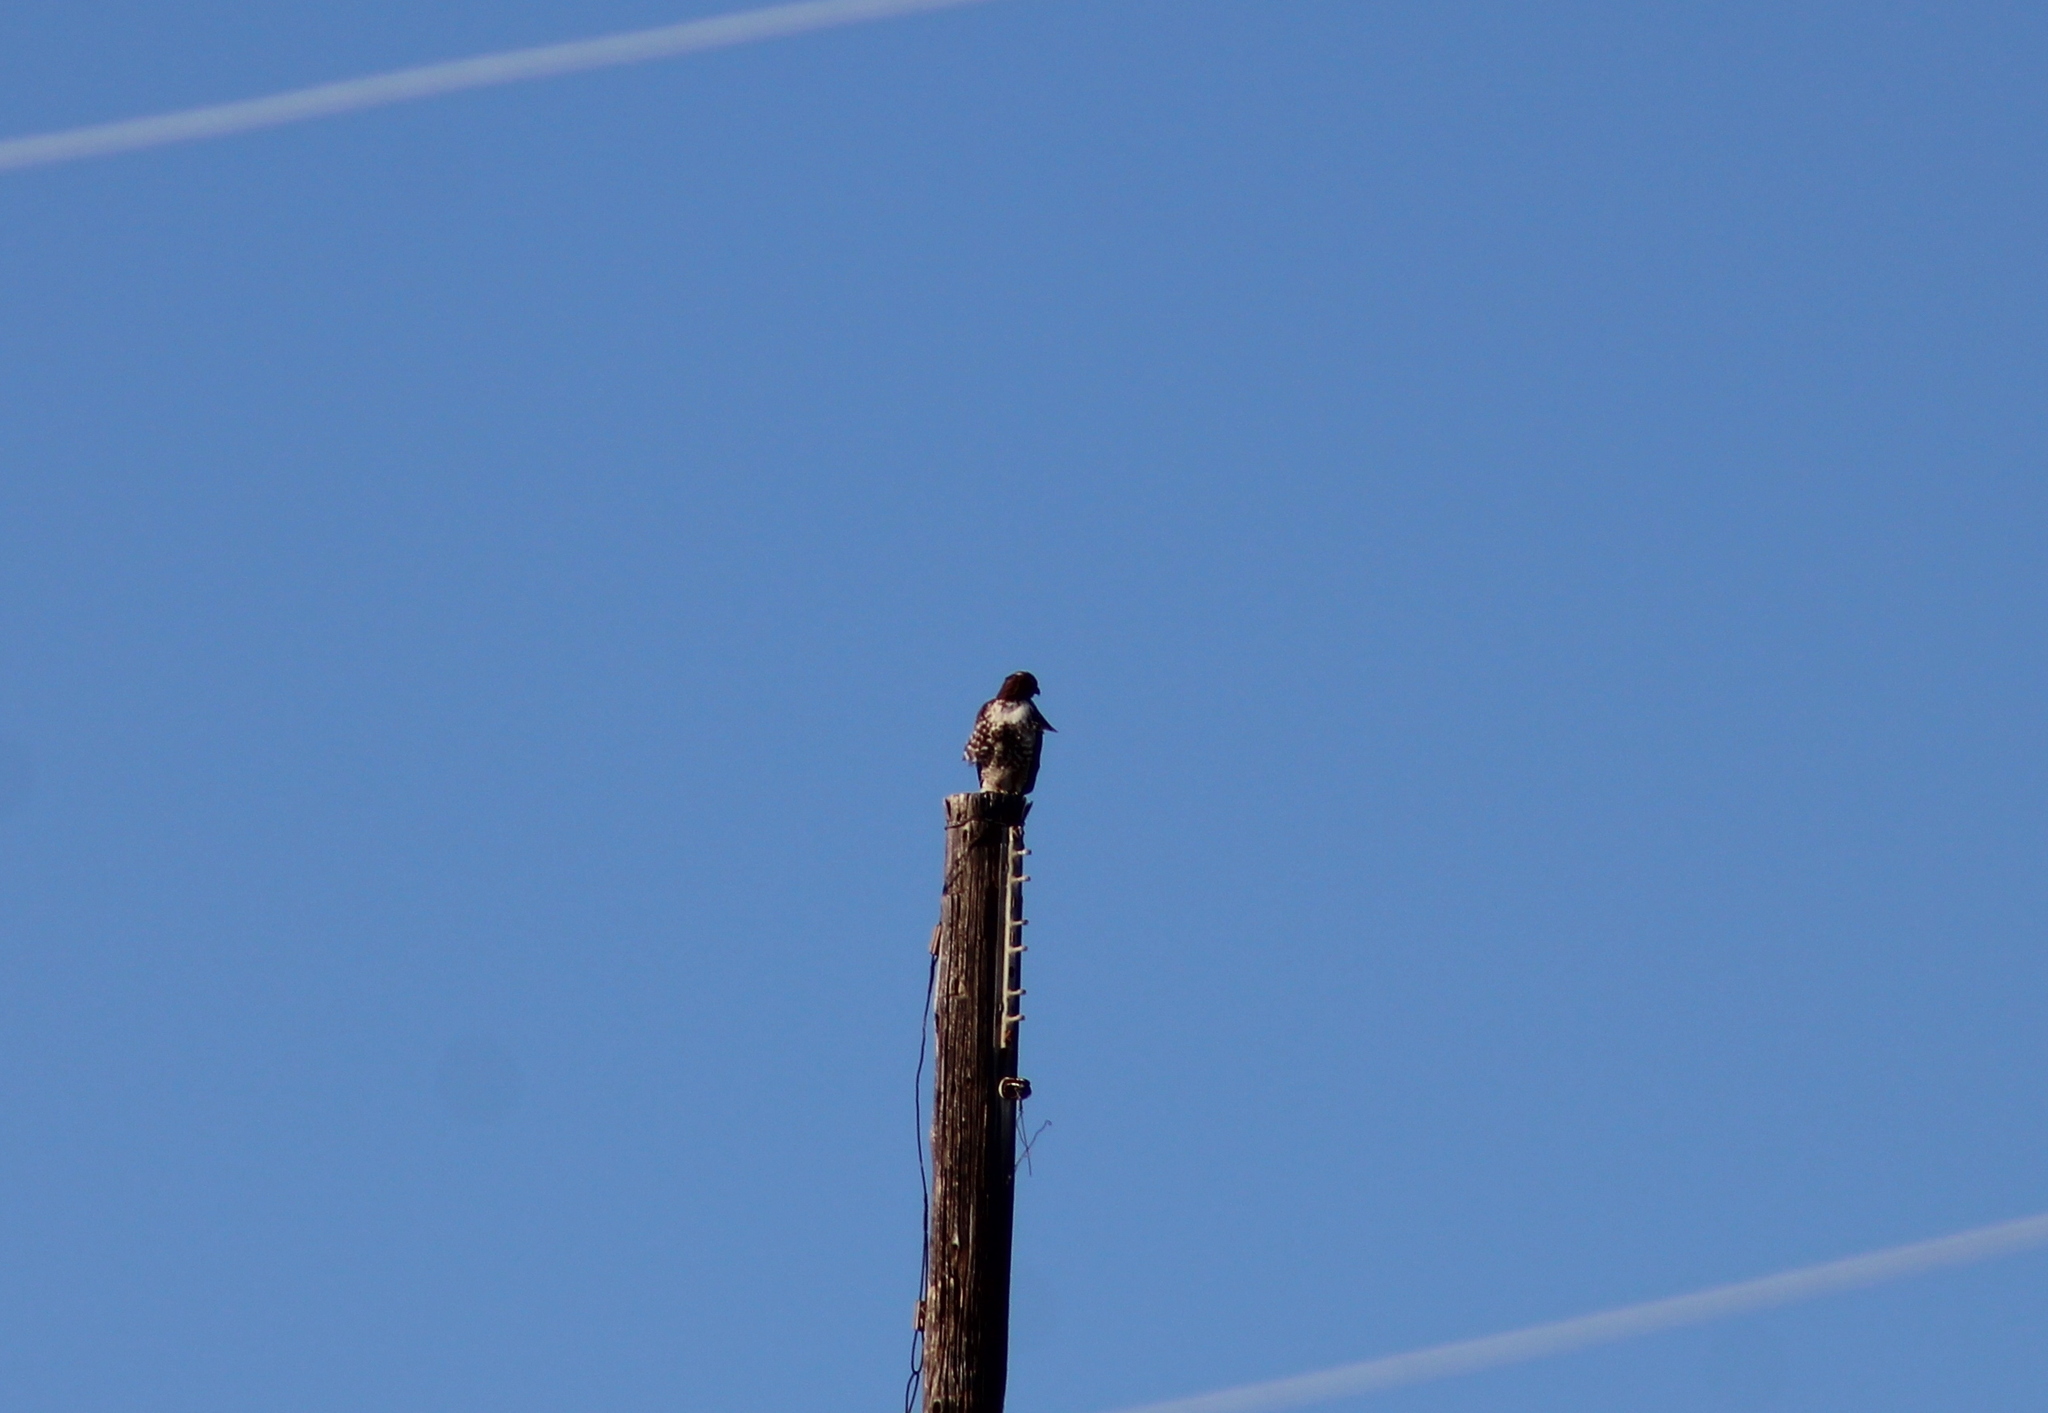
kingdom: Animalia
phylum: Chordata
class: Aves
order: Accipitriformes
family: Accipitridae
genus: Buteo
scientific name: Buteo jamaicensis
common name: Red-tailed hawk
